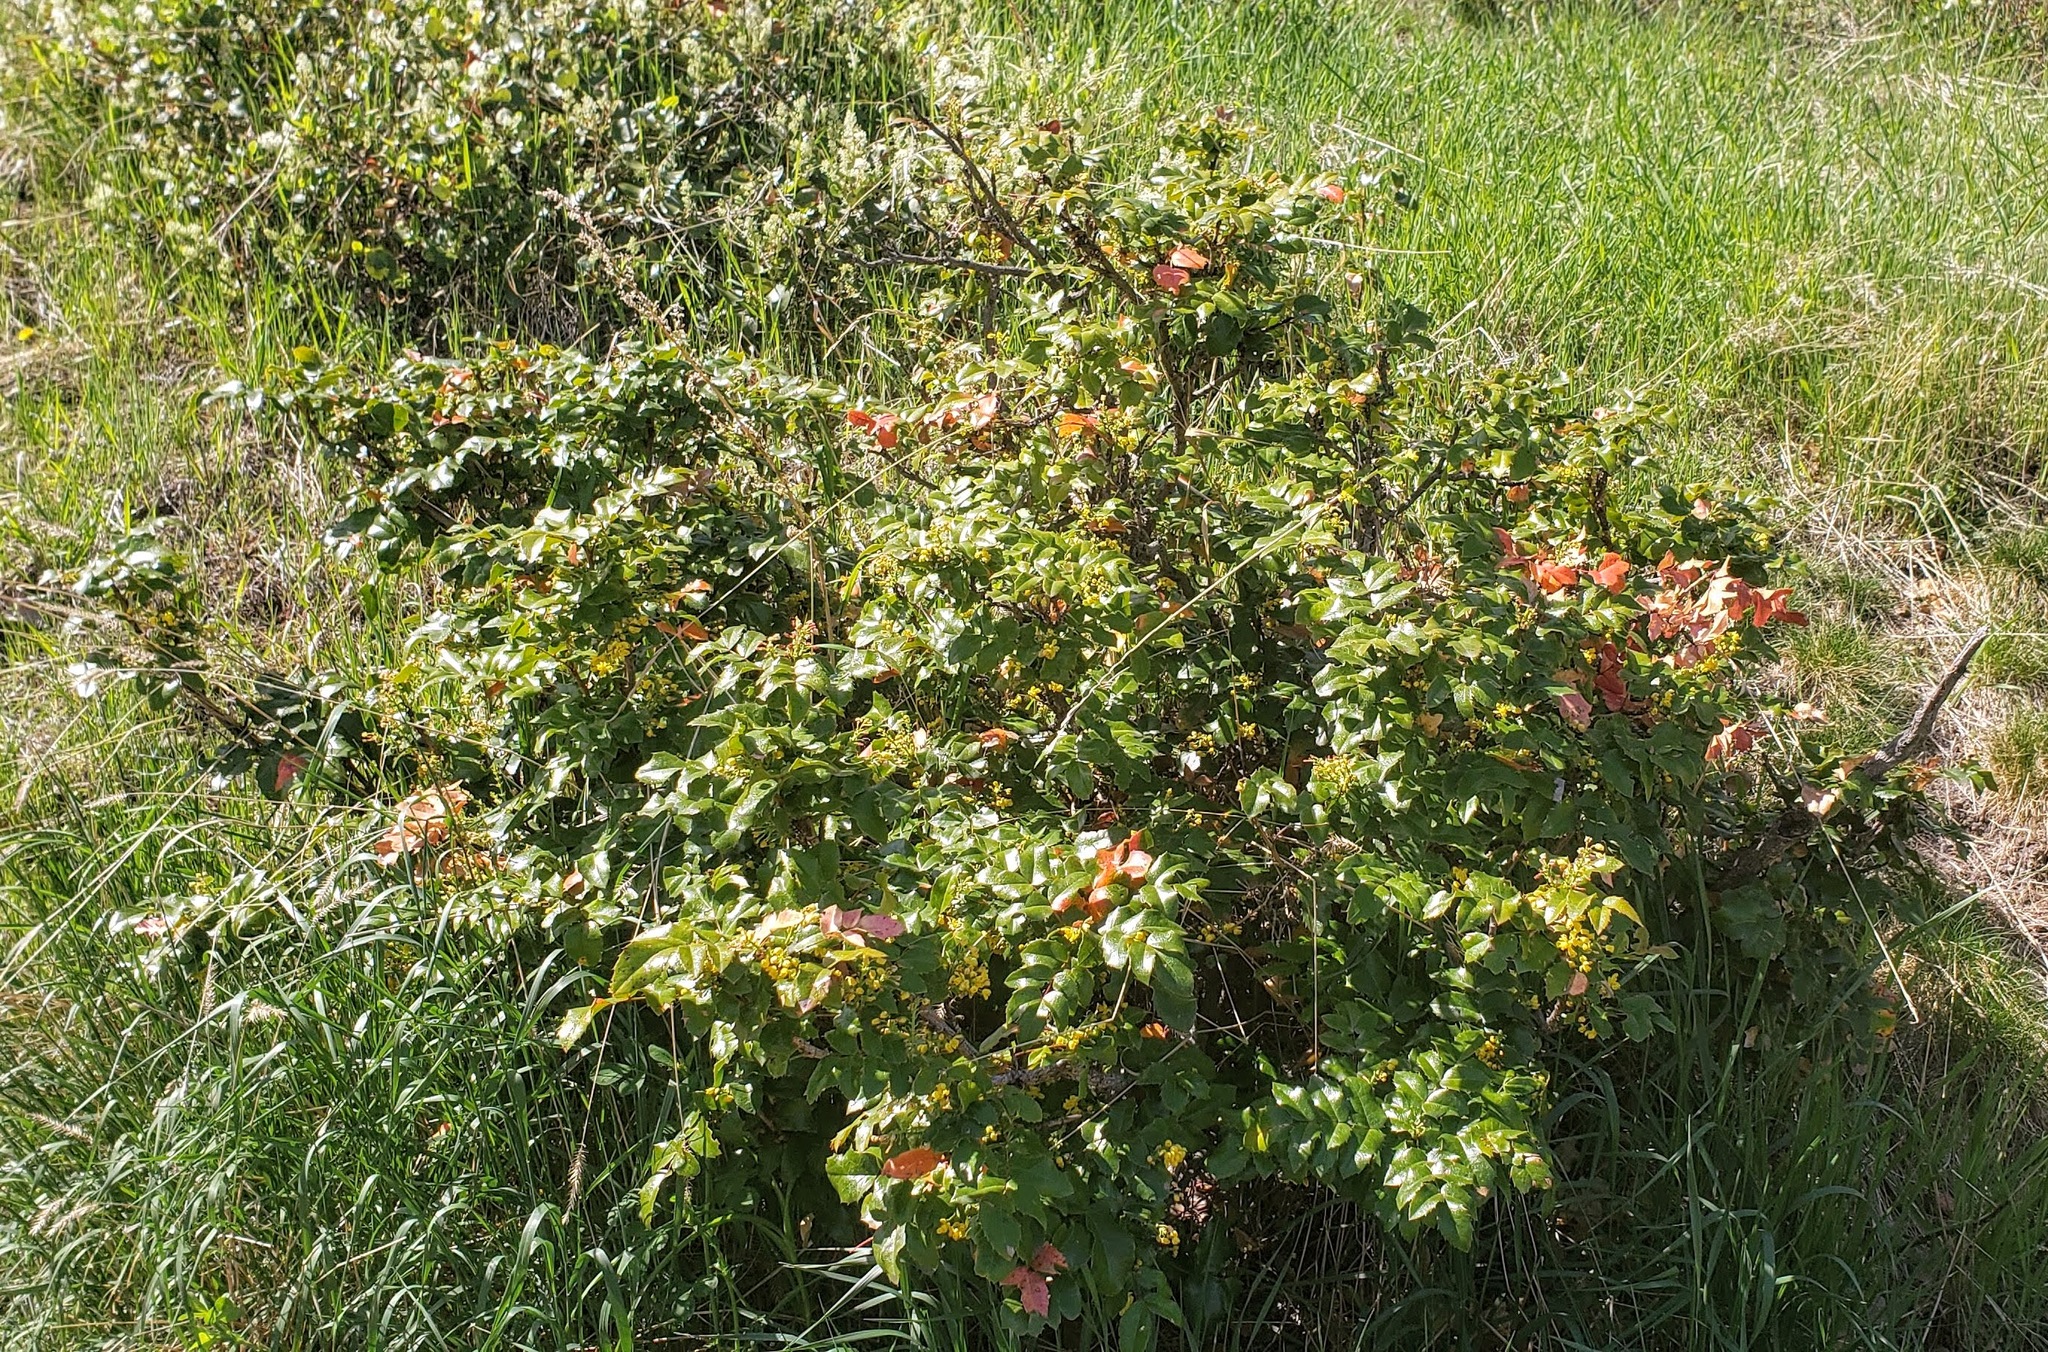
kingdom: Plantae
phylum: Tracheophyta
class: Magnoliopsida
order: Ranunculales
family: Berberidaceae
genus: Mahonia
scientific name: Mahonia aquifolium
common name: Oregon-grape
